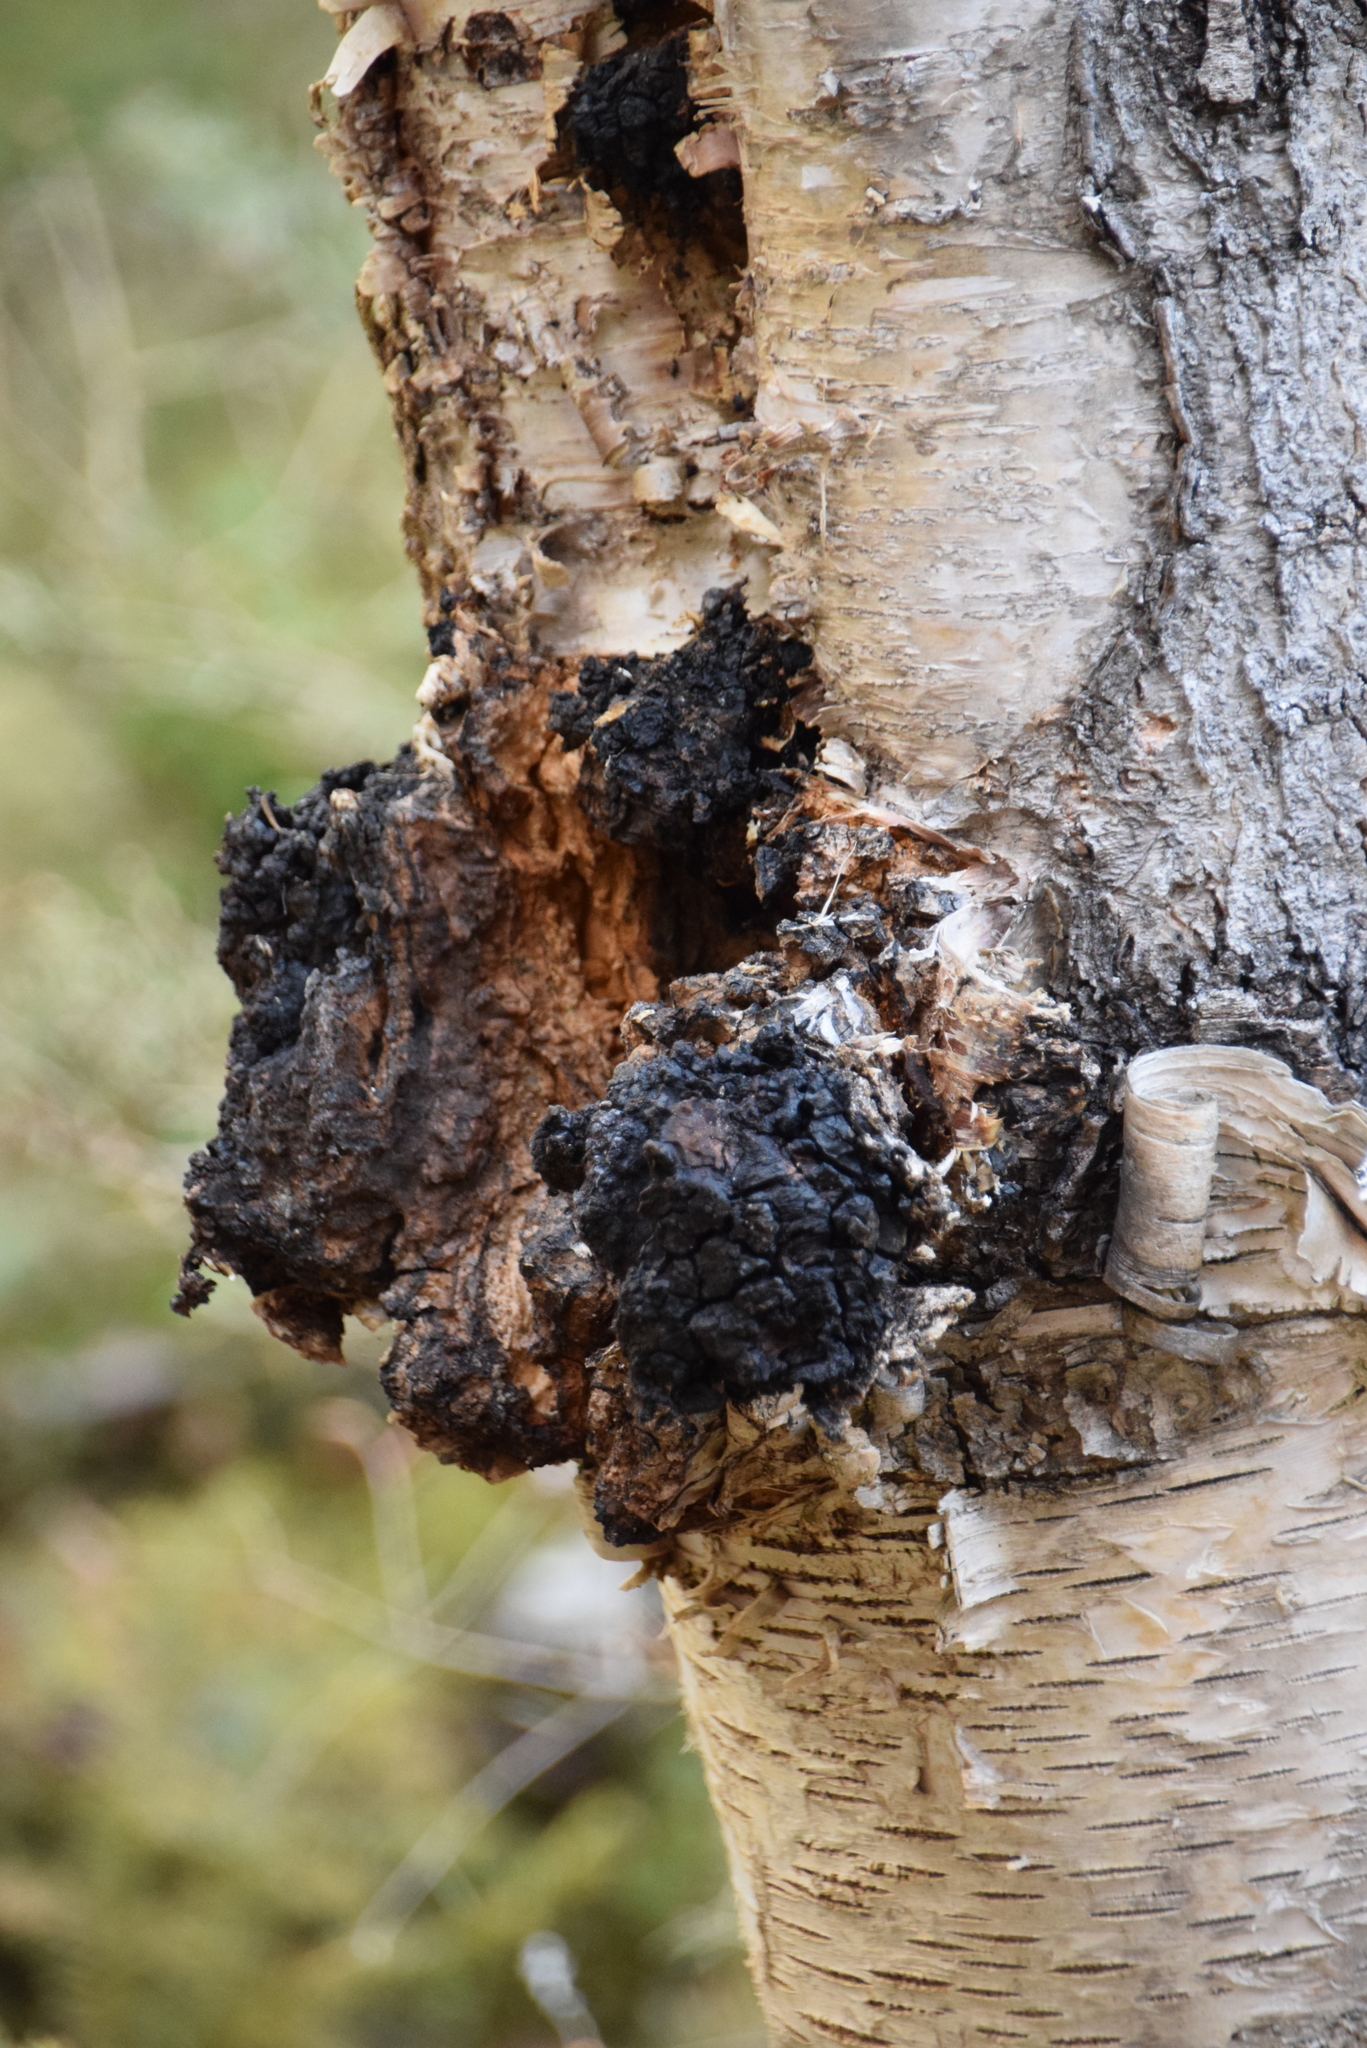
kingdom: Fungi
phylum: Basidiomycota
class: Agaricomycetes
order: Hymenochaetales
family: Hymenochaetaceae
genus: Inonotus
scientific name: Inonotus obliquus
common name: Chaga
